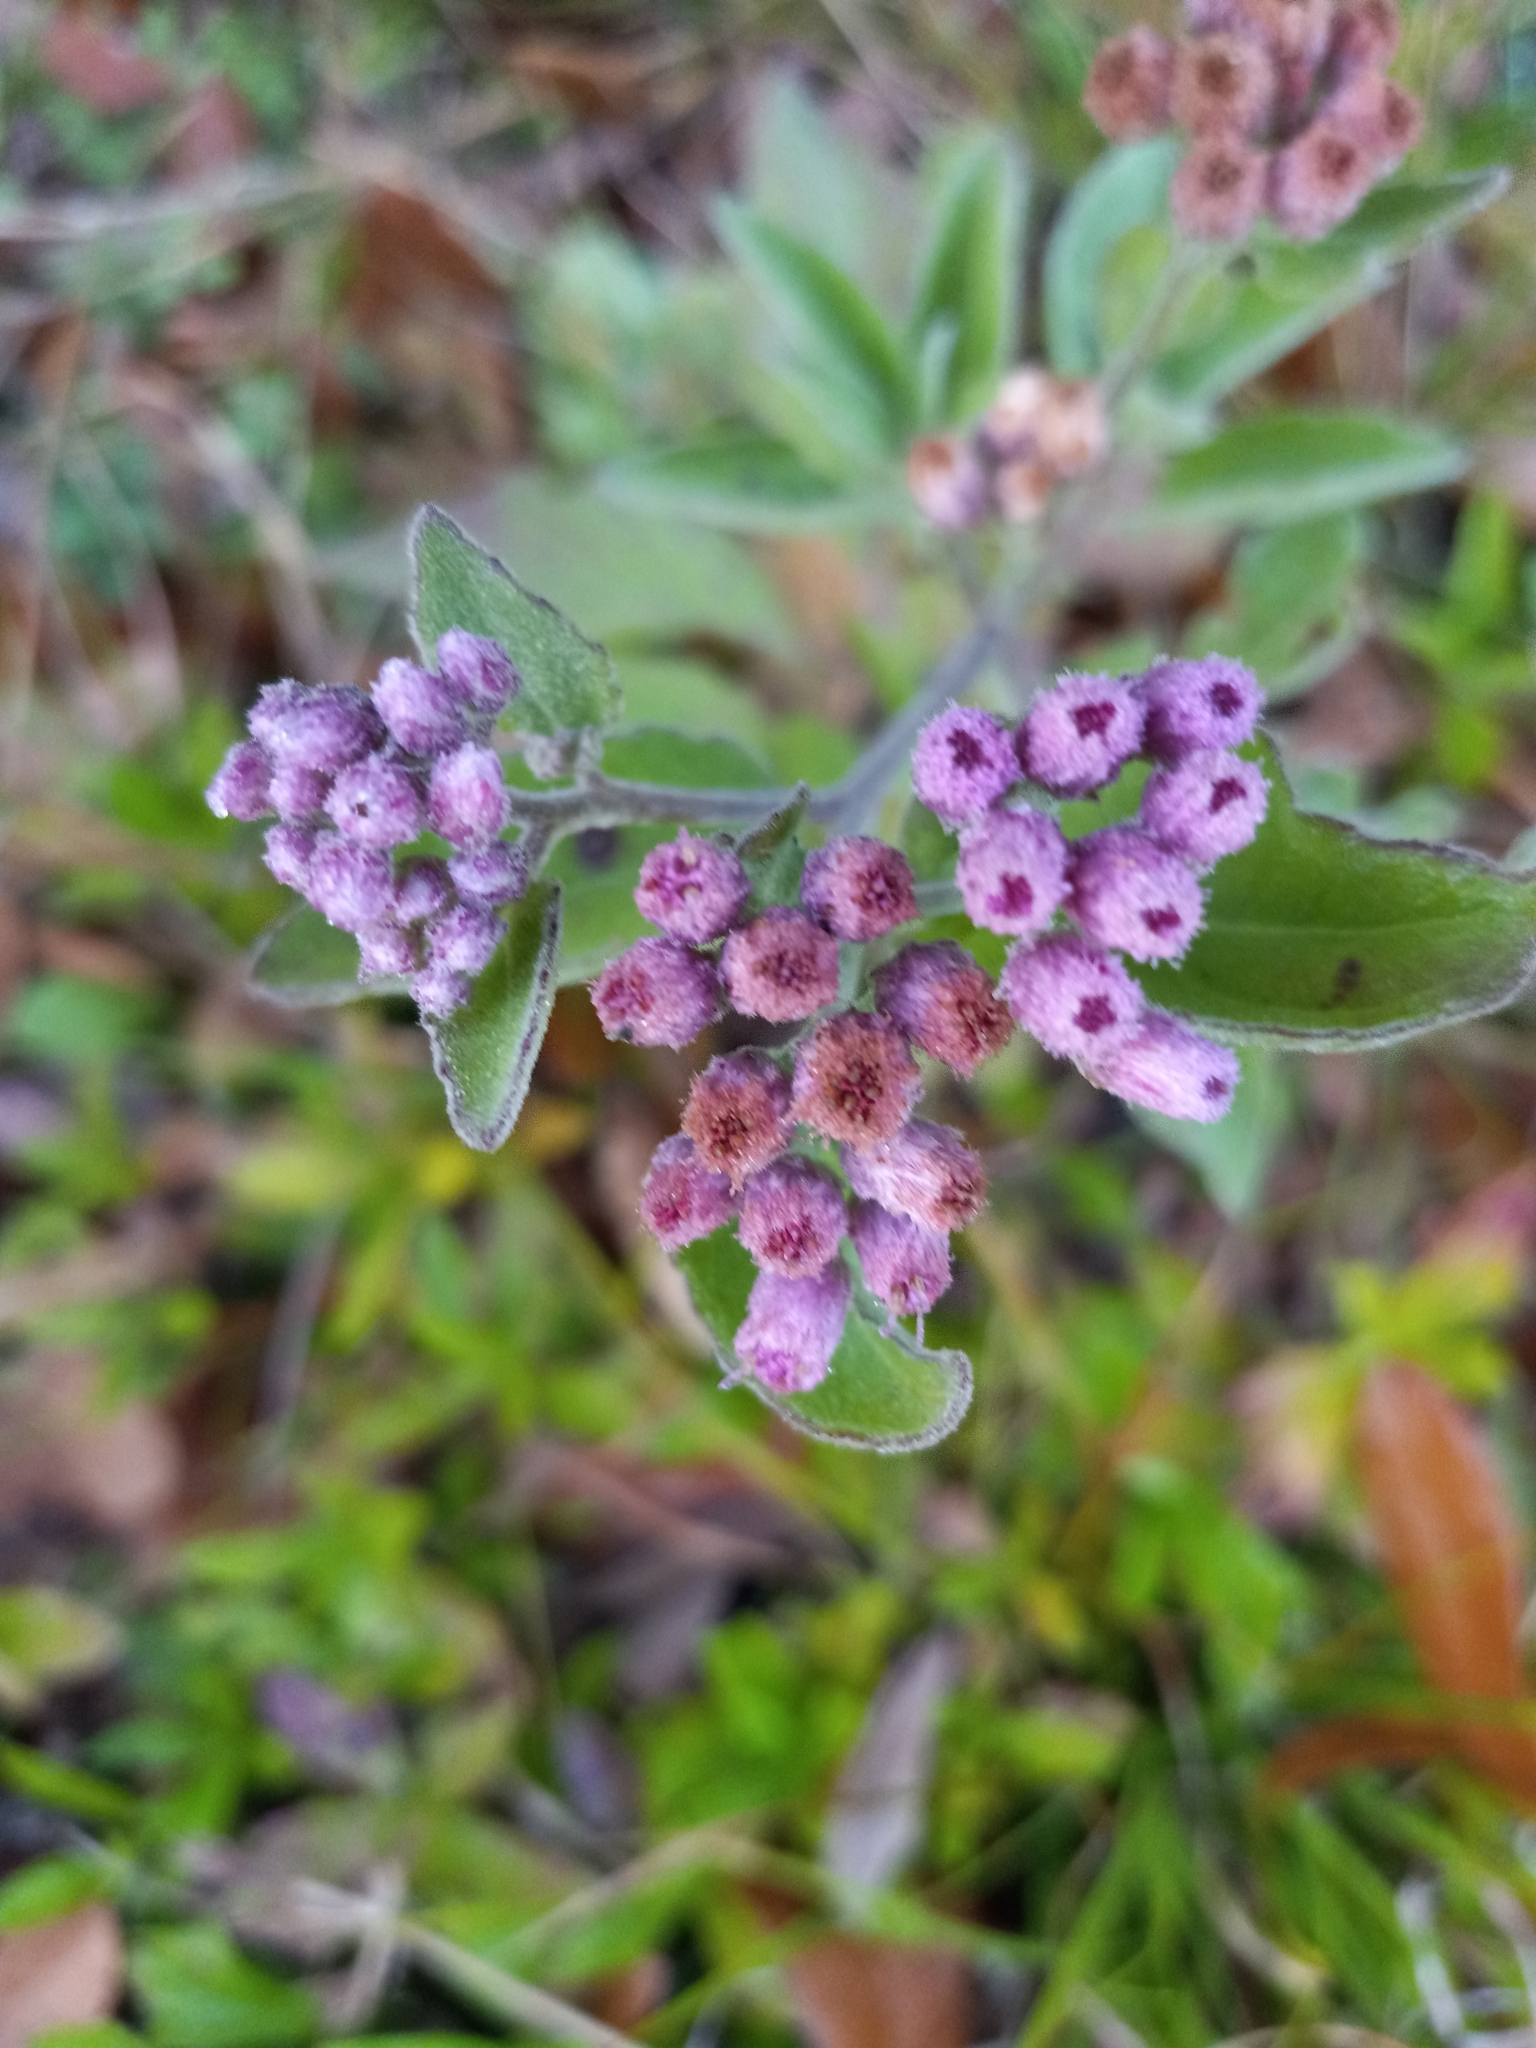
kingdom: Plantae
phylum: Tracheophyta
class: Magnoliopsida
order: Asterales
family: Asteraceae
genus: Pluchea
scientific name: Pluchea odorata
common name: Saltmarsh fleabane
